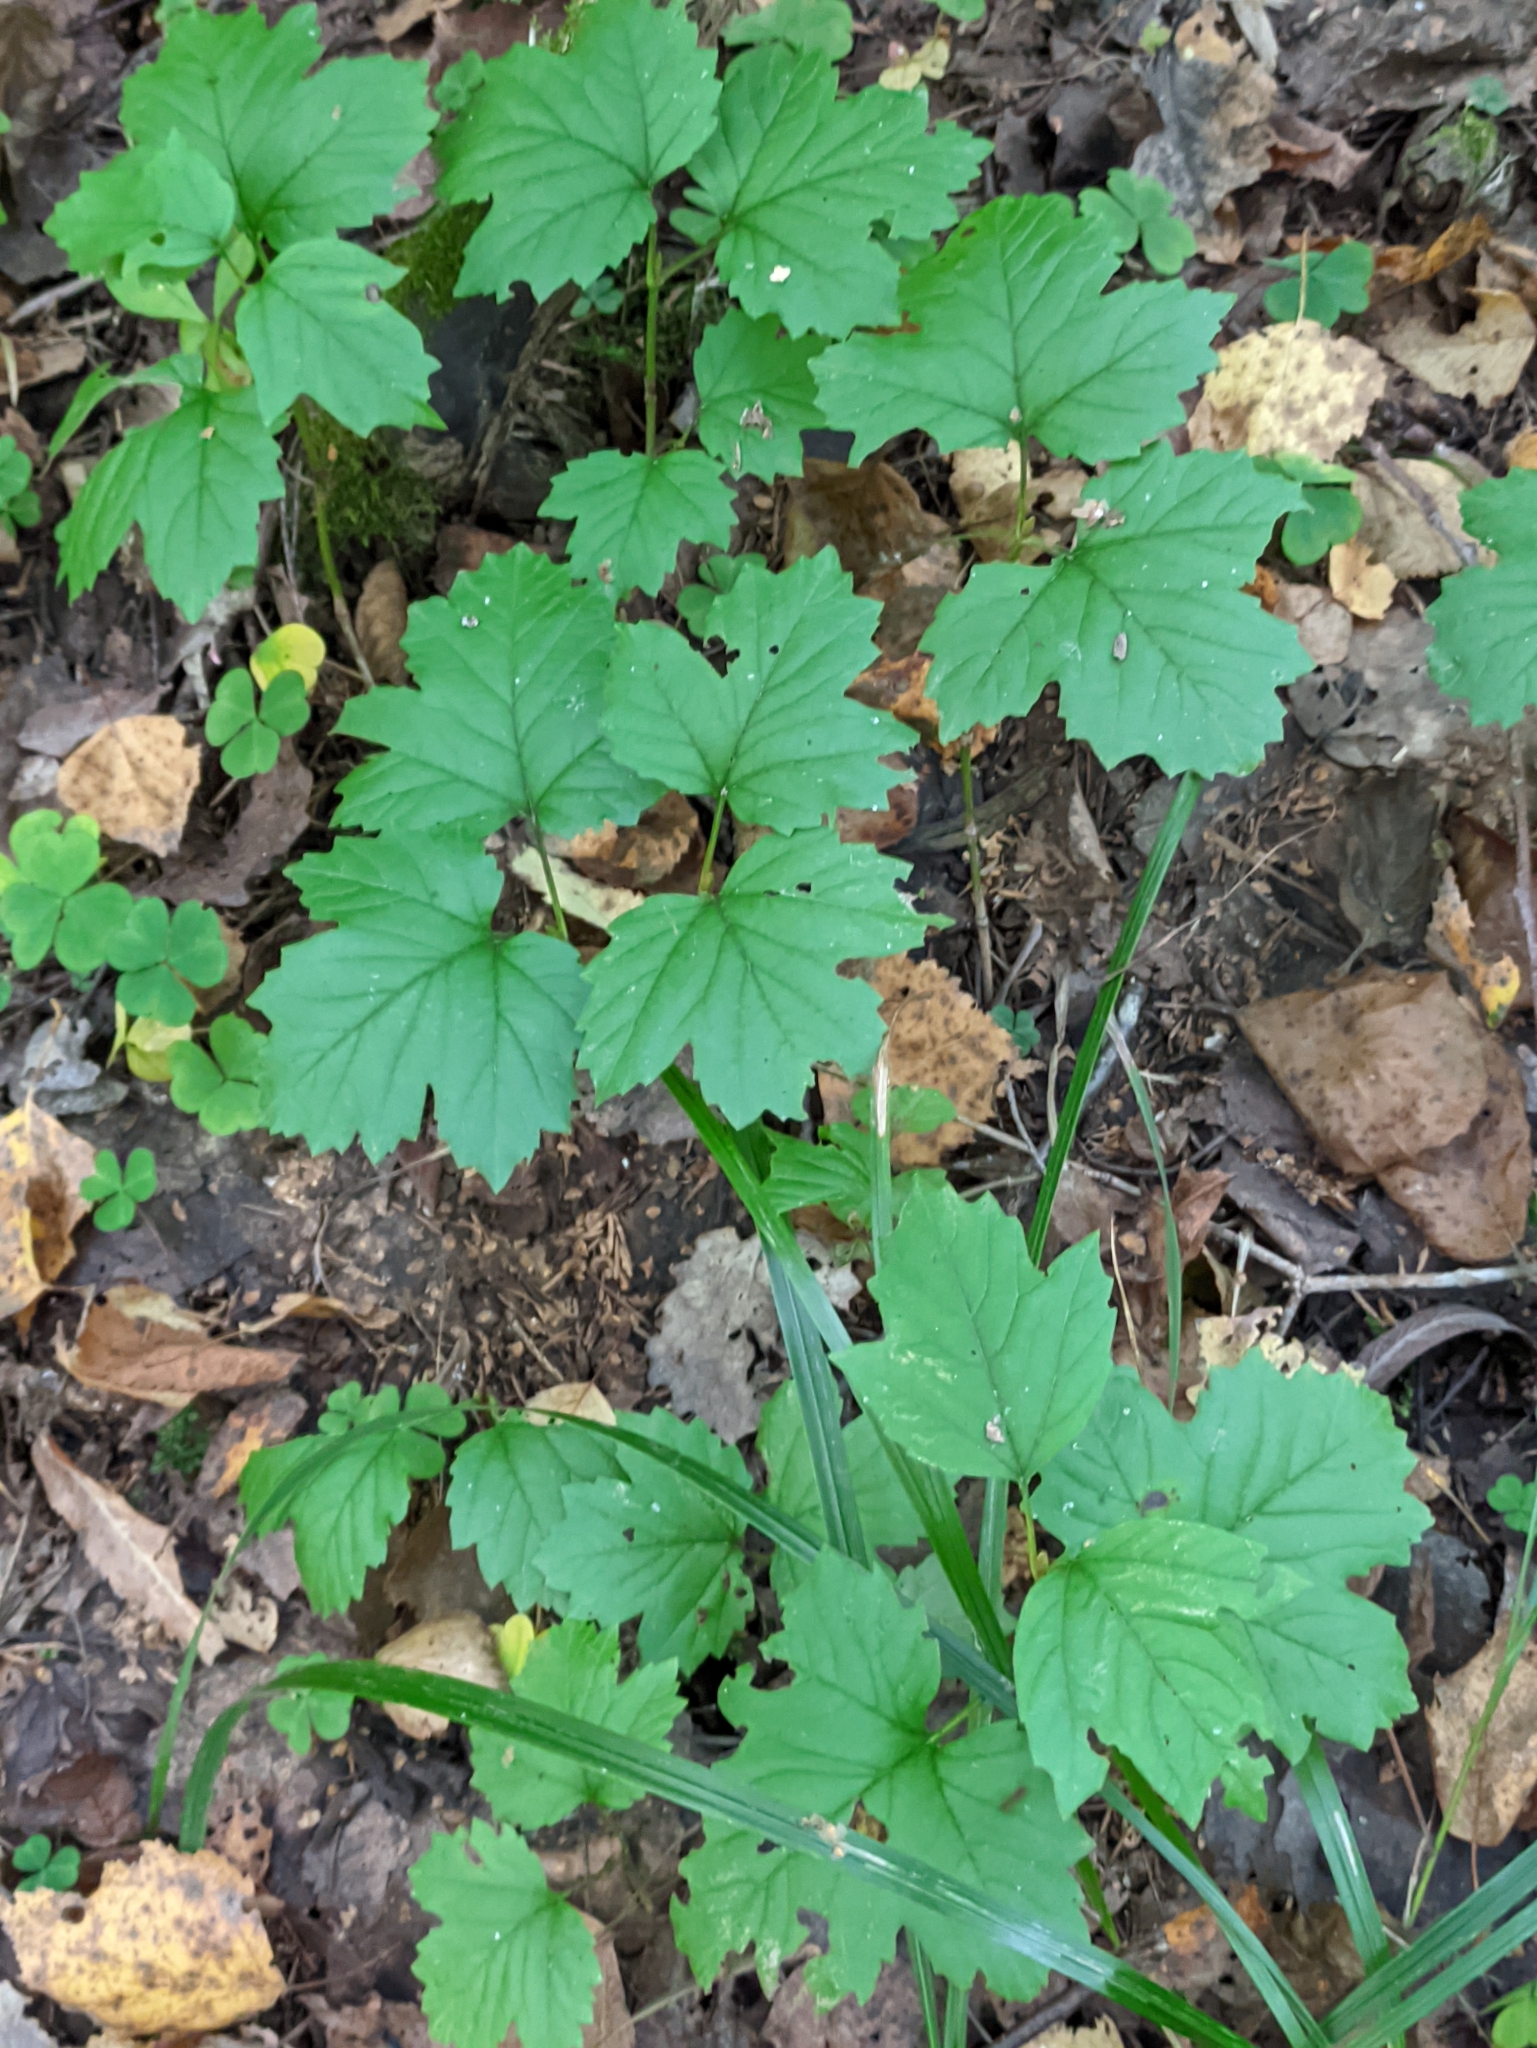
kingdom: Plantae
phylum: Tracheophyta
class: Magnoliopsida
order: Dipsacales
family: Viburnaceae
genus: Viburnum
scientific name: Viburnum opulus
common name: Guelder-rose
